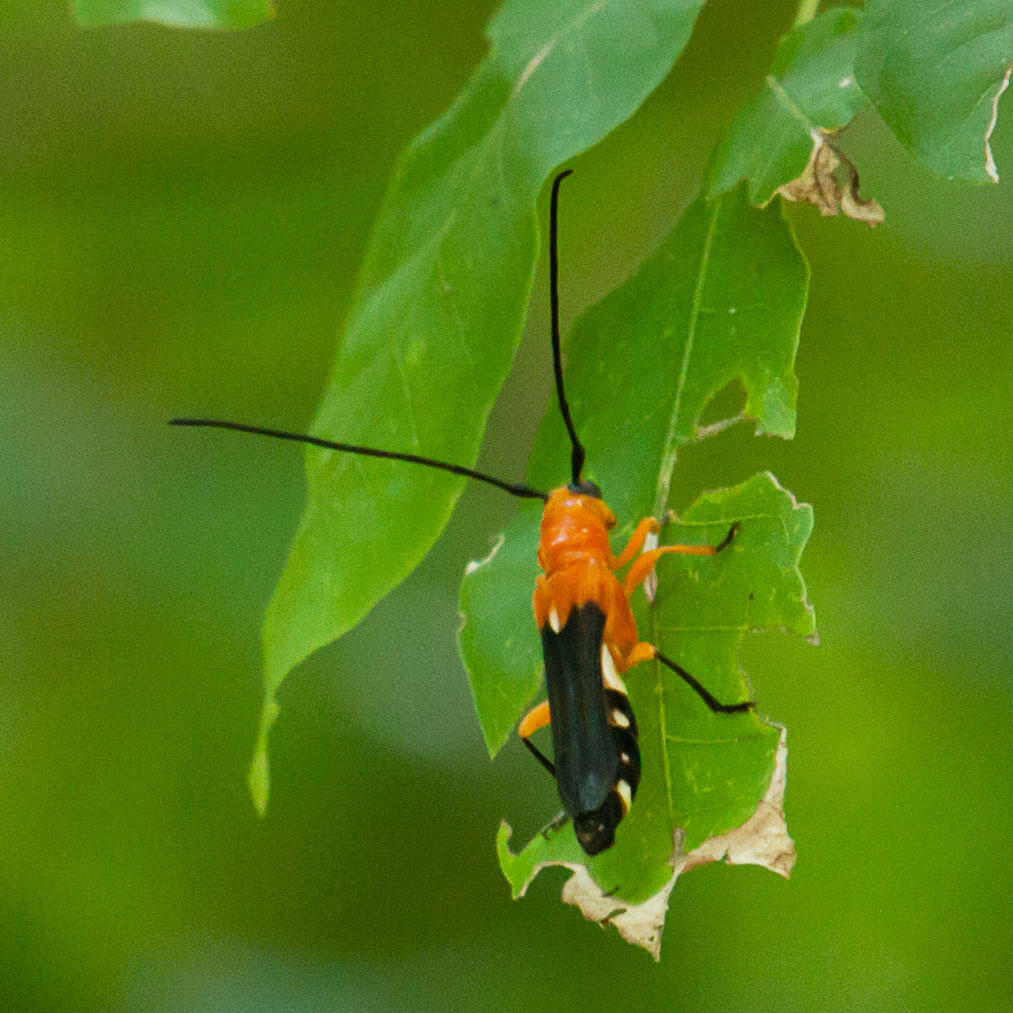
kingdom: Animalia
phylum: Arthropoda
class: Insecta
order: Coleoptera
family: Cerambycidae
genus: Leuconitocris
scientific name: Leuconitocris
